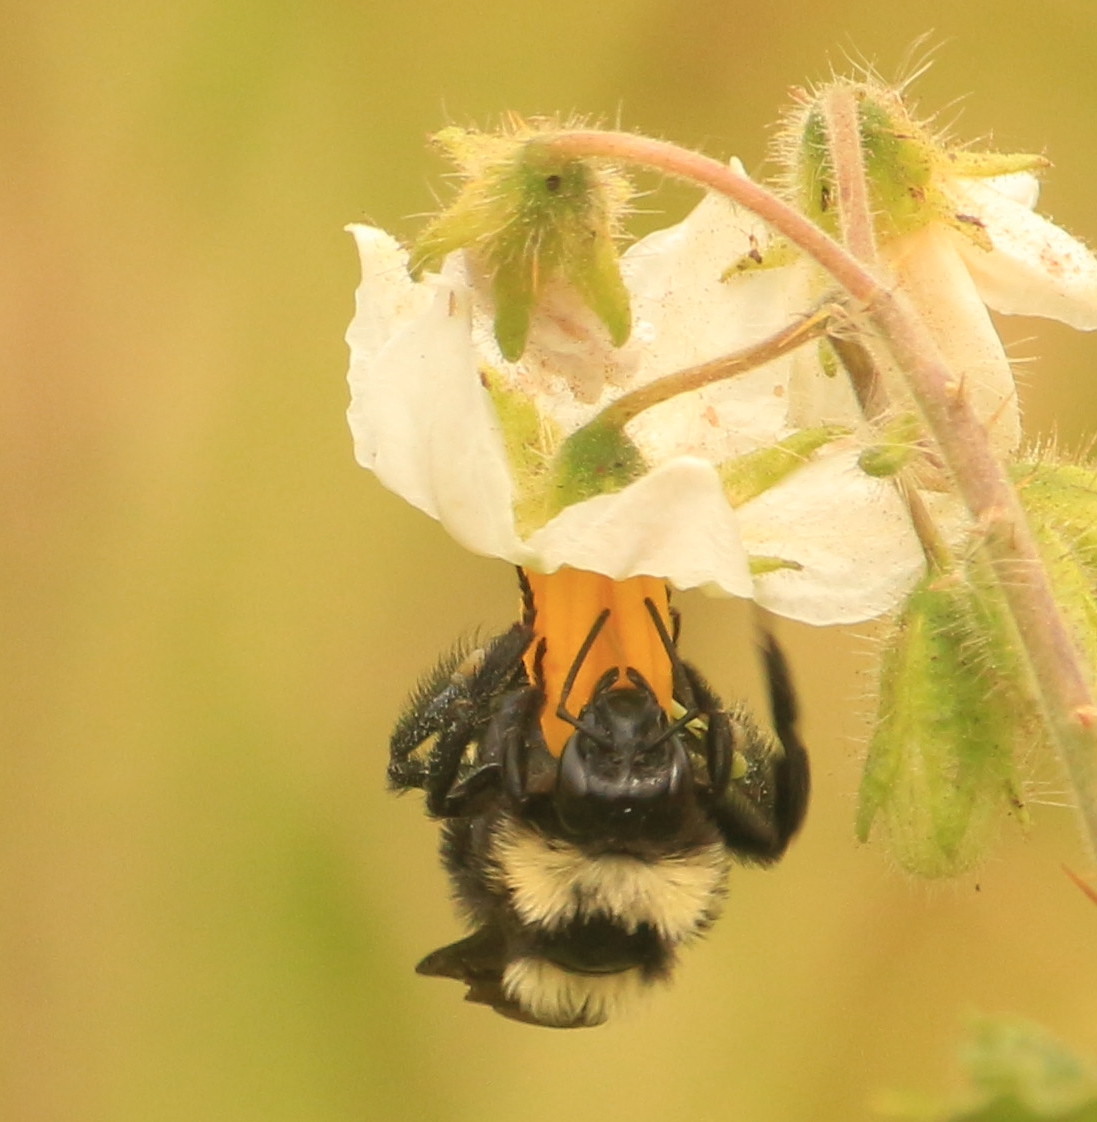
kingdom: Animalia
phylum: Arthropoda
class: Insecta
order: Hymenoptera
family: Apidae
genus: Bombus
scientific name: Bombus pauloensis
